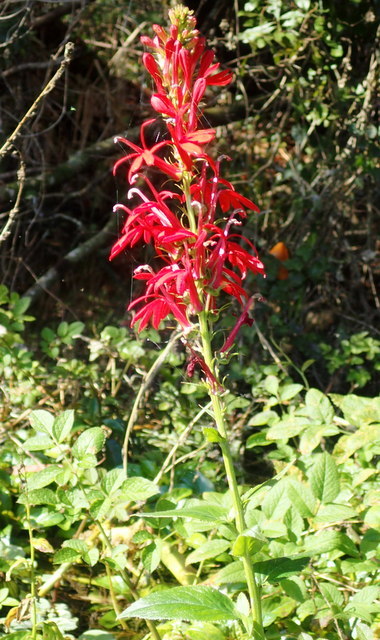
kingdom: Plantae
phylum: Tracheophyta
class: Magnoliopsida
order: Asterales
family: Campanulaceae
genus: Lobelia
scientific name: Lobelia cardinalis
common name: Cardinal flower
